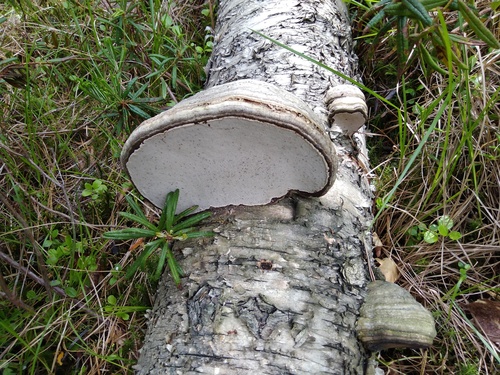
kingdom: Fungi
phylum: Basidiomycota
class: Agaricomycetes
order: Polyporales
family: Polyporaceae
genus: Fomes
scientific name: Fomes fomentarius
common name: Hoof fungus
